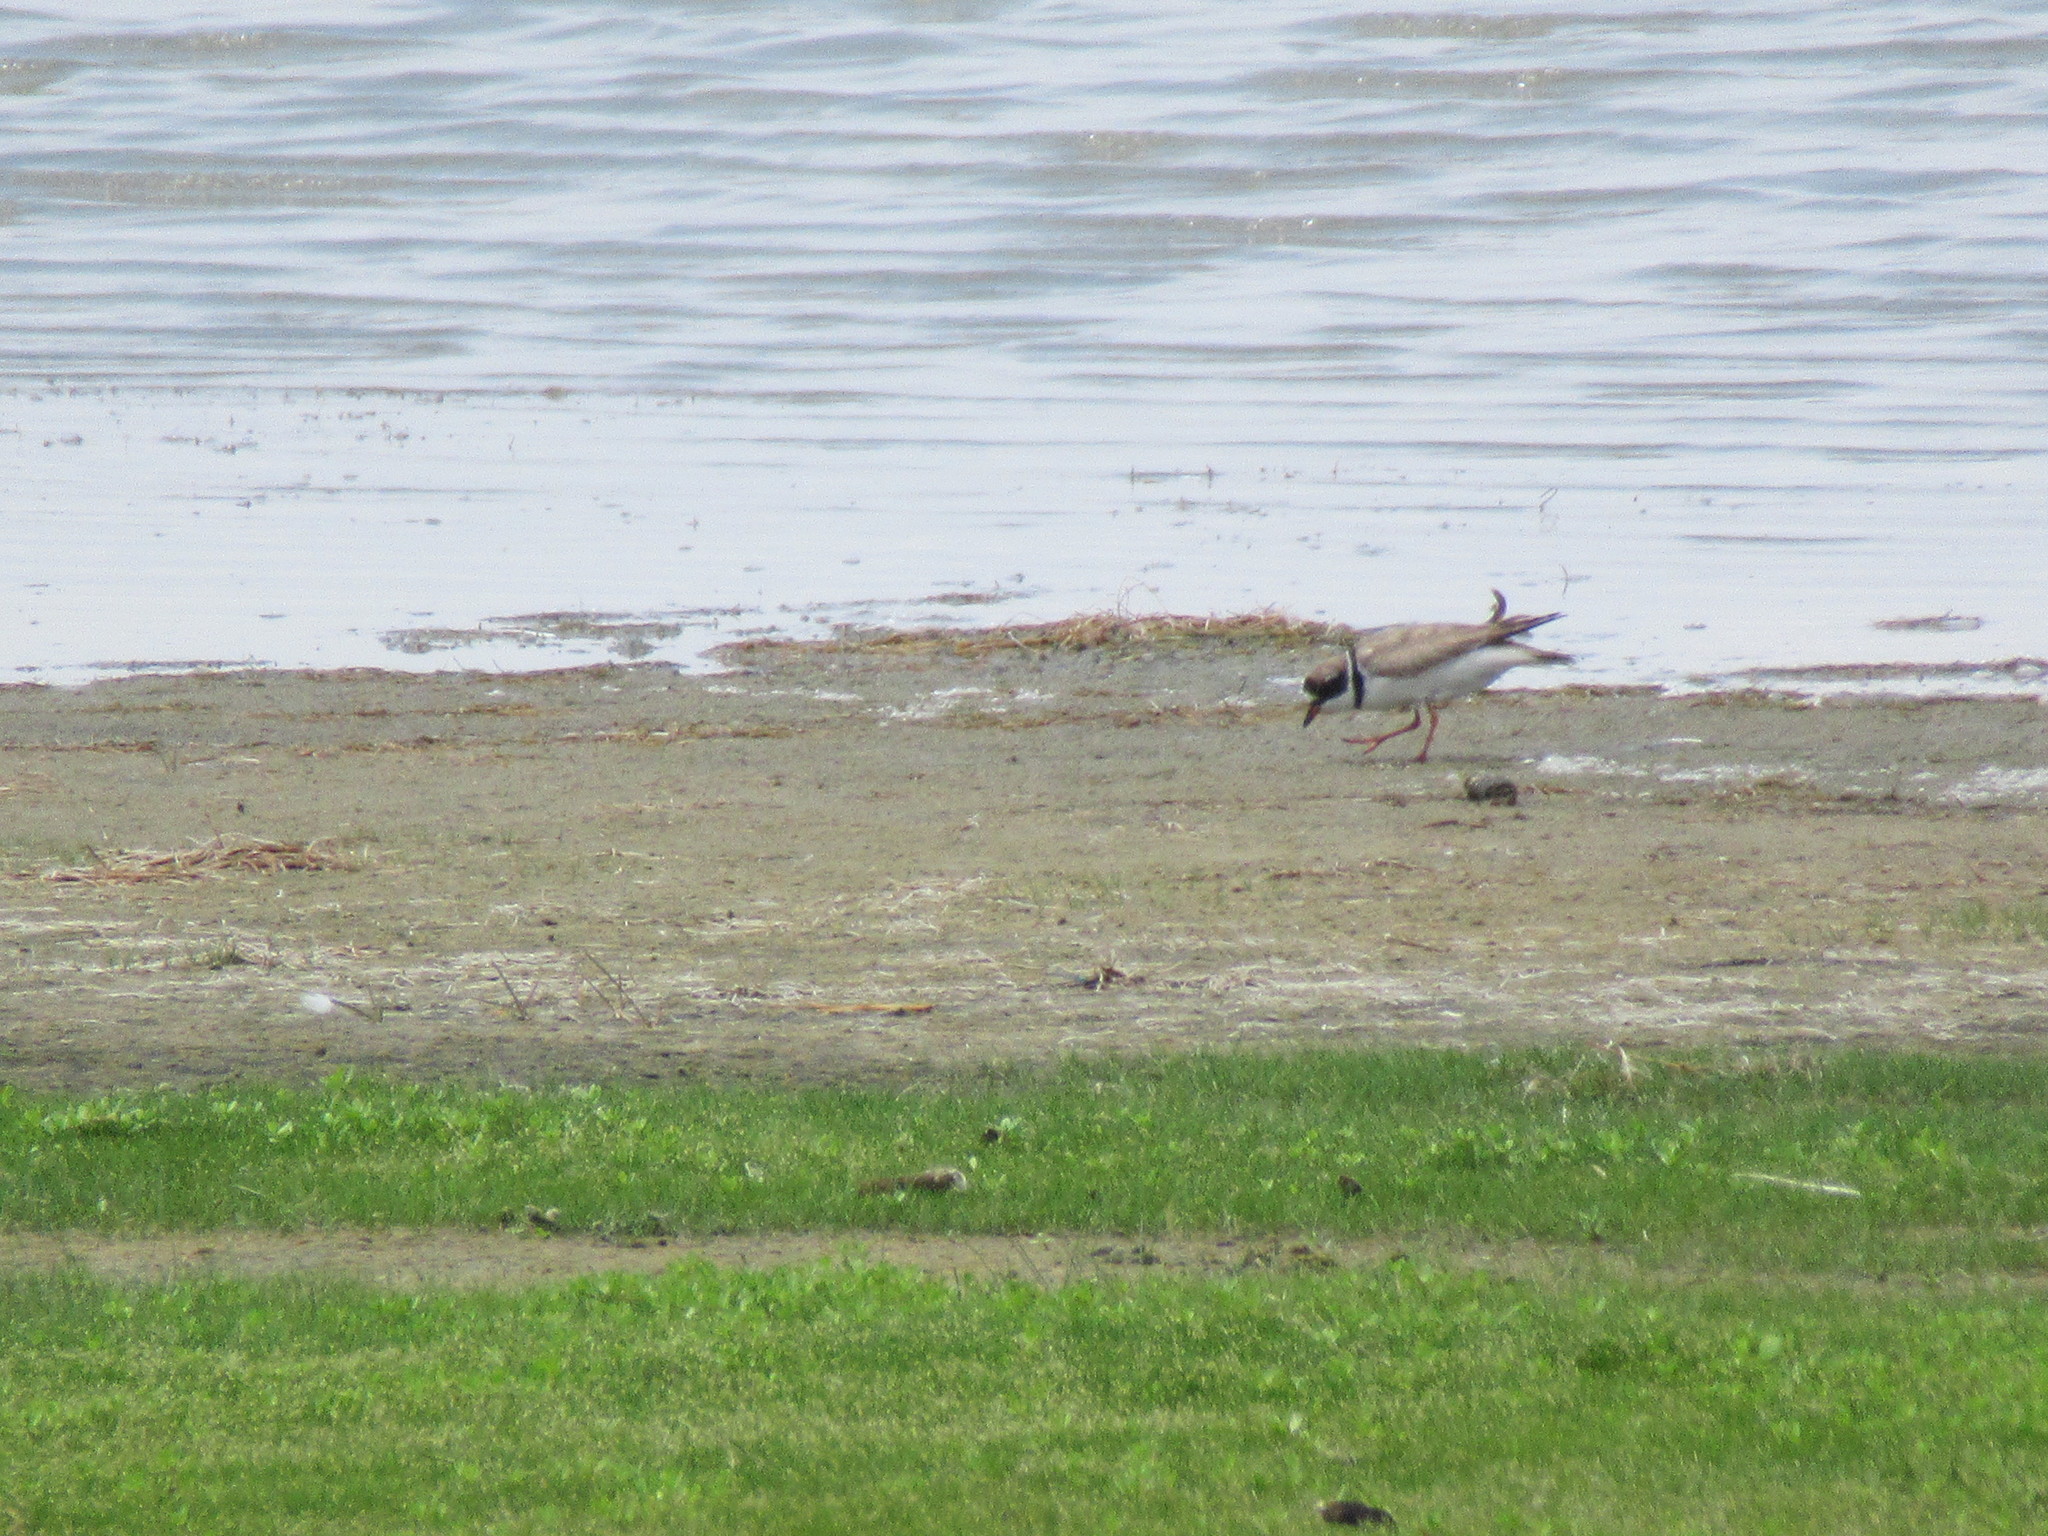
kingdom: Animalia
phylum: Chordata
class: Aves
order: Charadriiformes
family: Charadriidae
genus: Charadrius
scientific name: Charadrius semipalmatus
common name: Semipalmated plover
